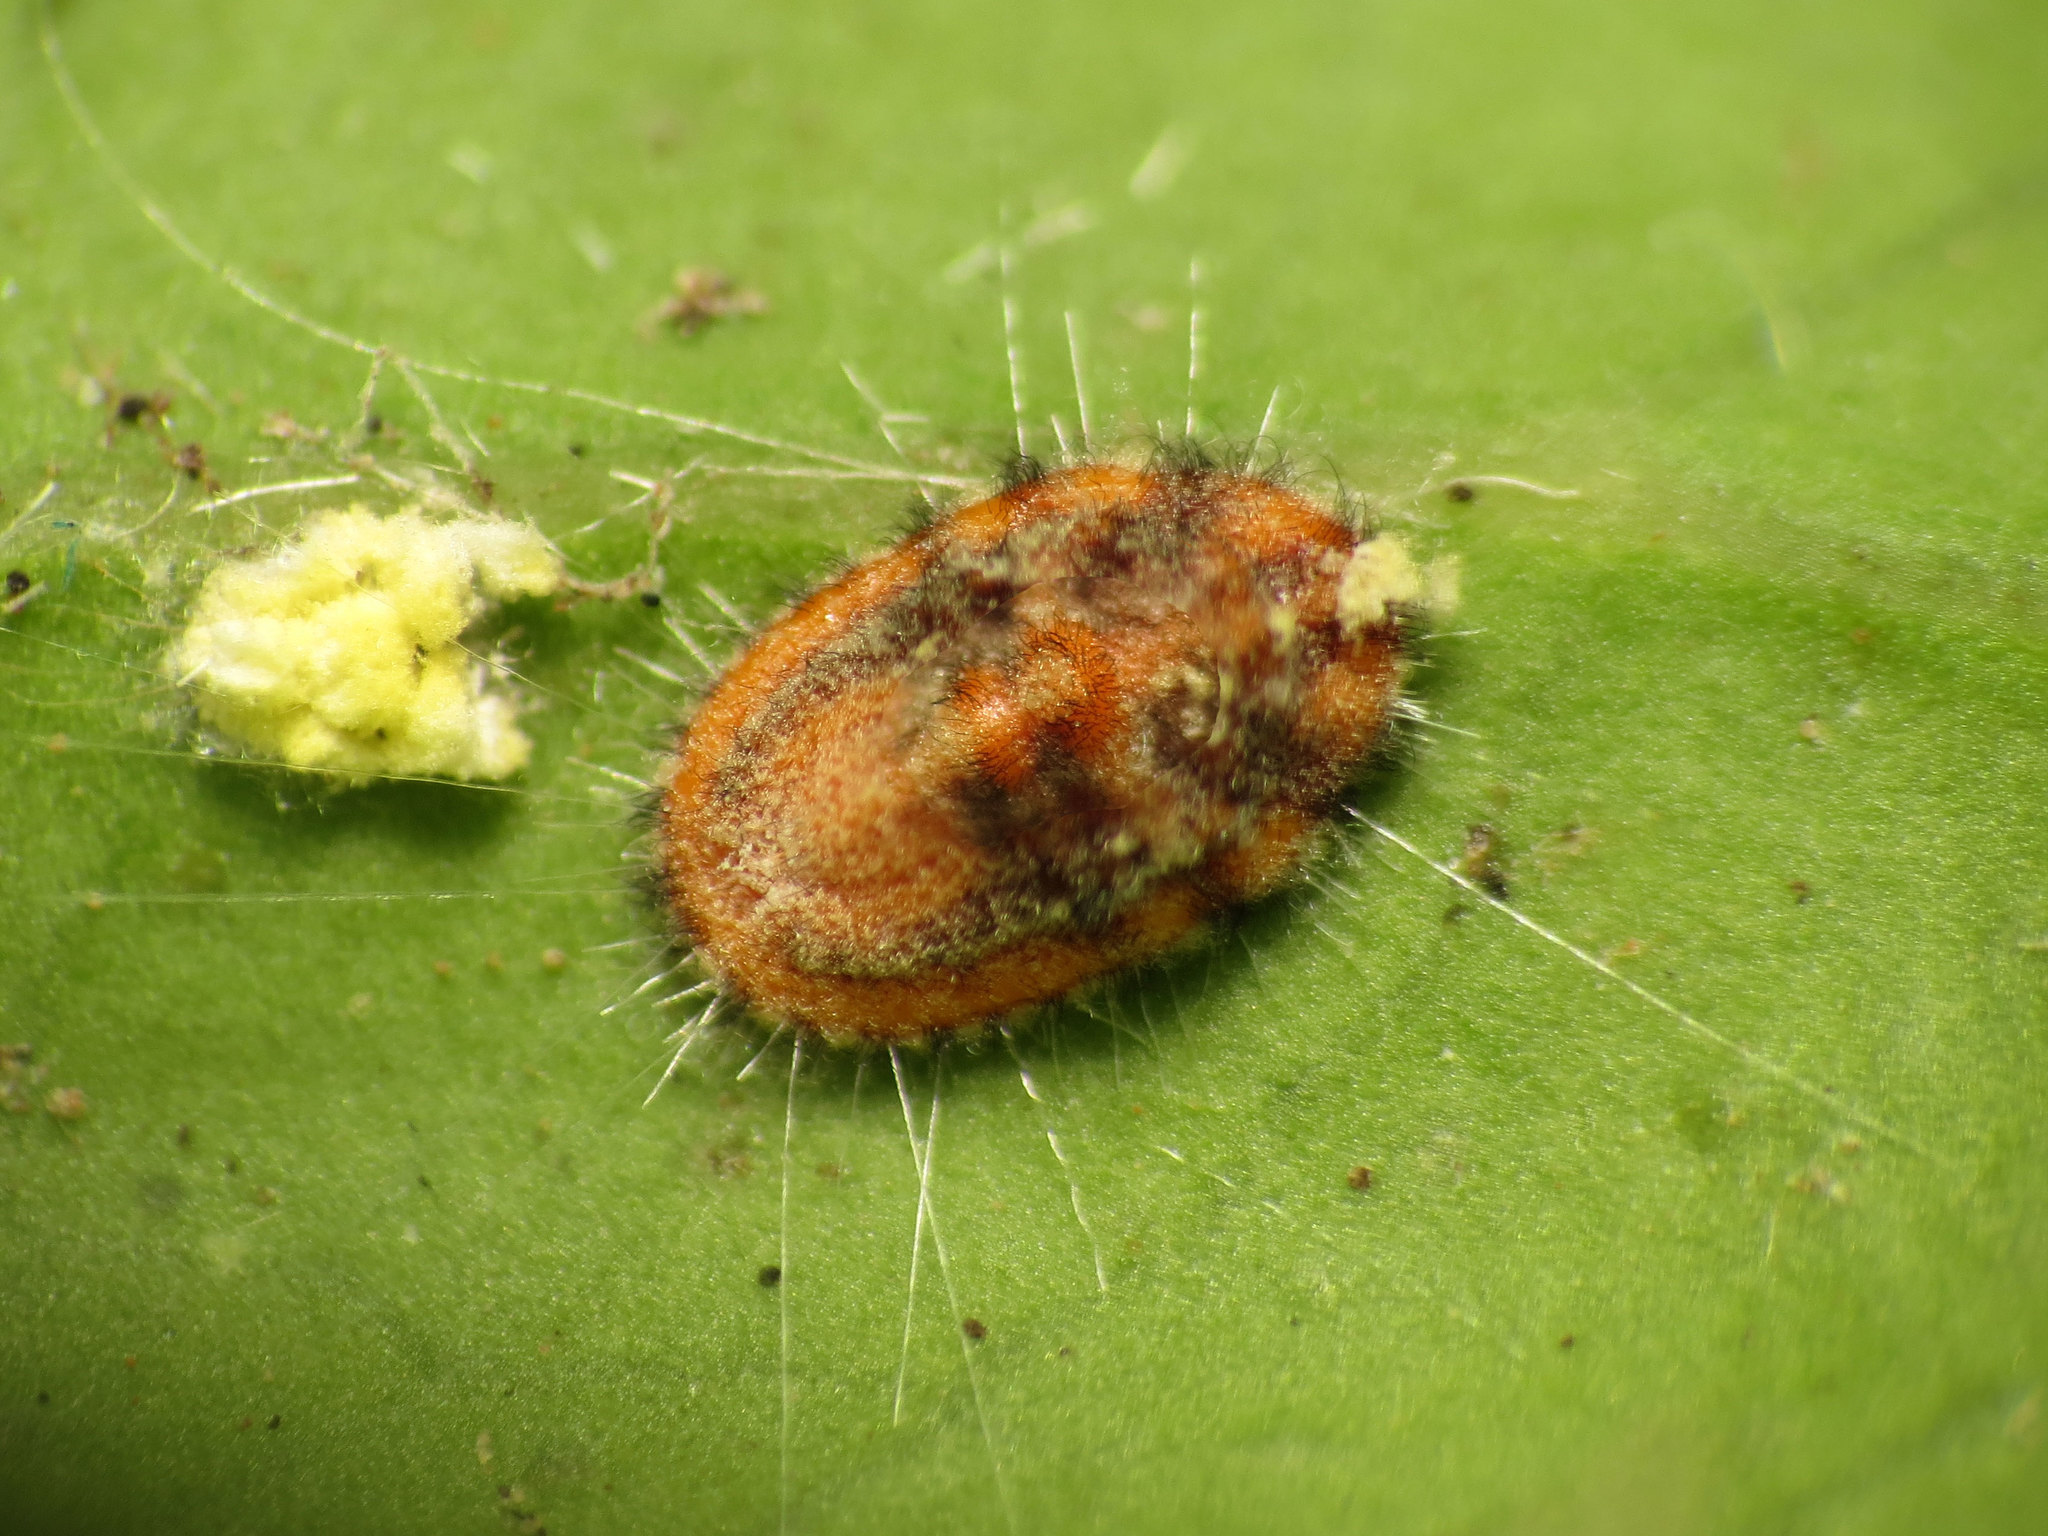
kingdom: Animalia
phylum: Arthropoda
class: Insecta
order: Hemiptera
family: Margarodidae
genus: Icerya
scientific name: Icerya purchasi
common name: Cottony cushion scale
